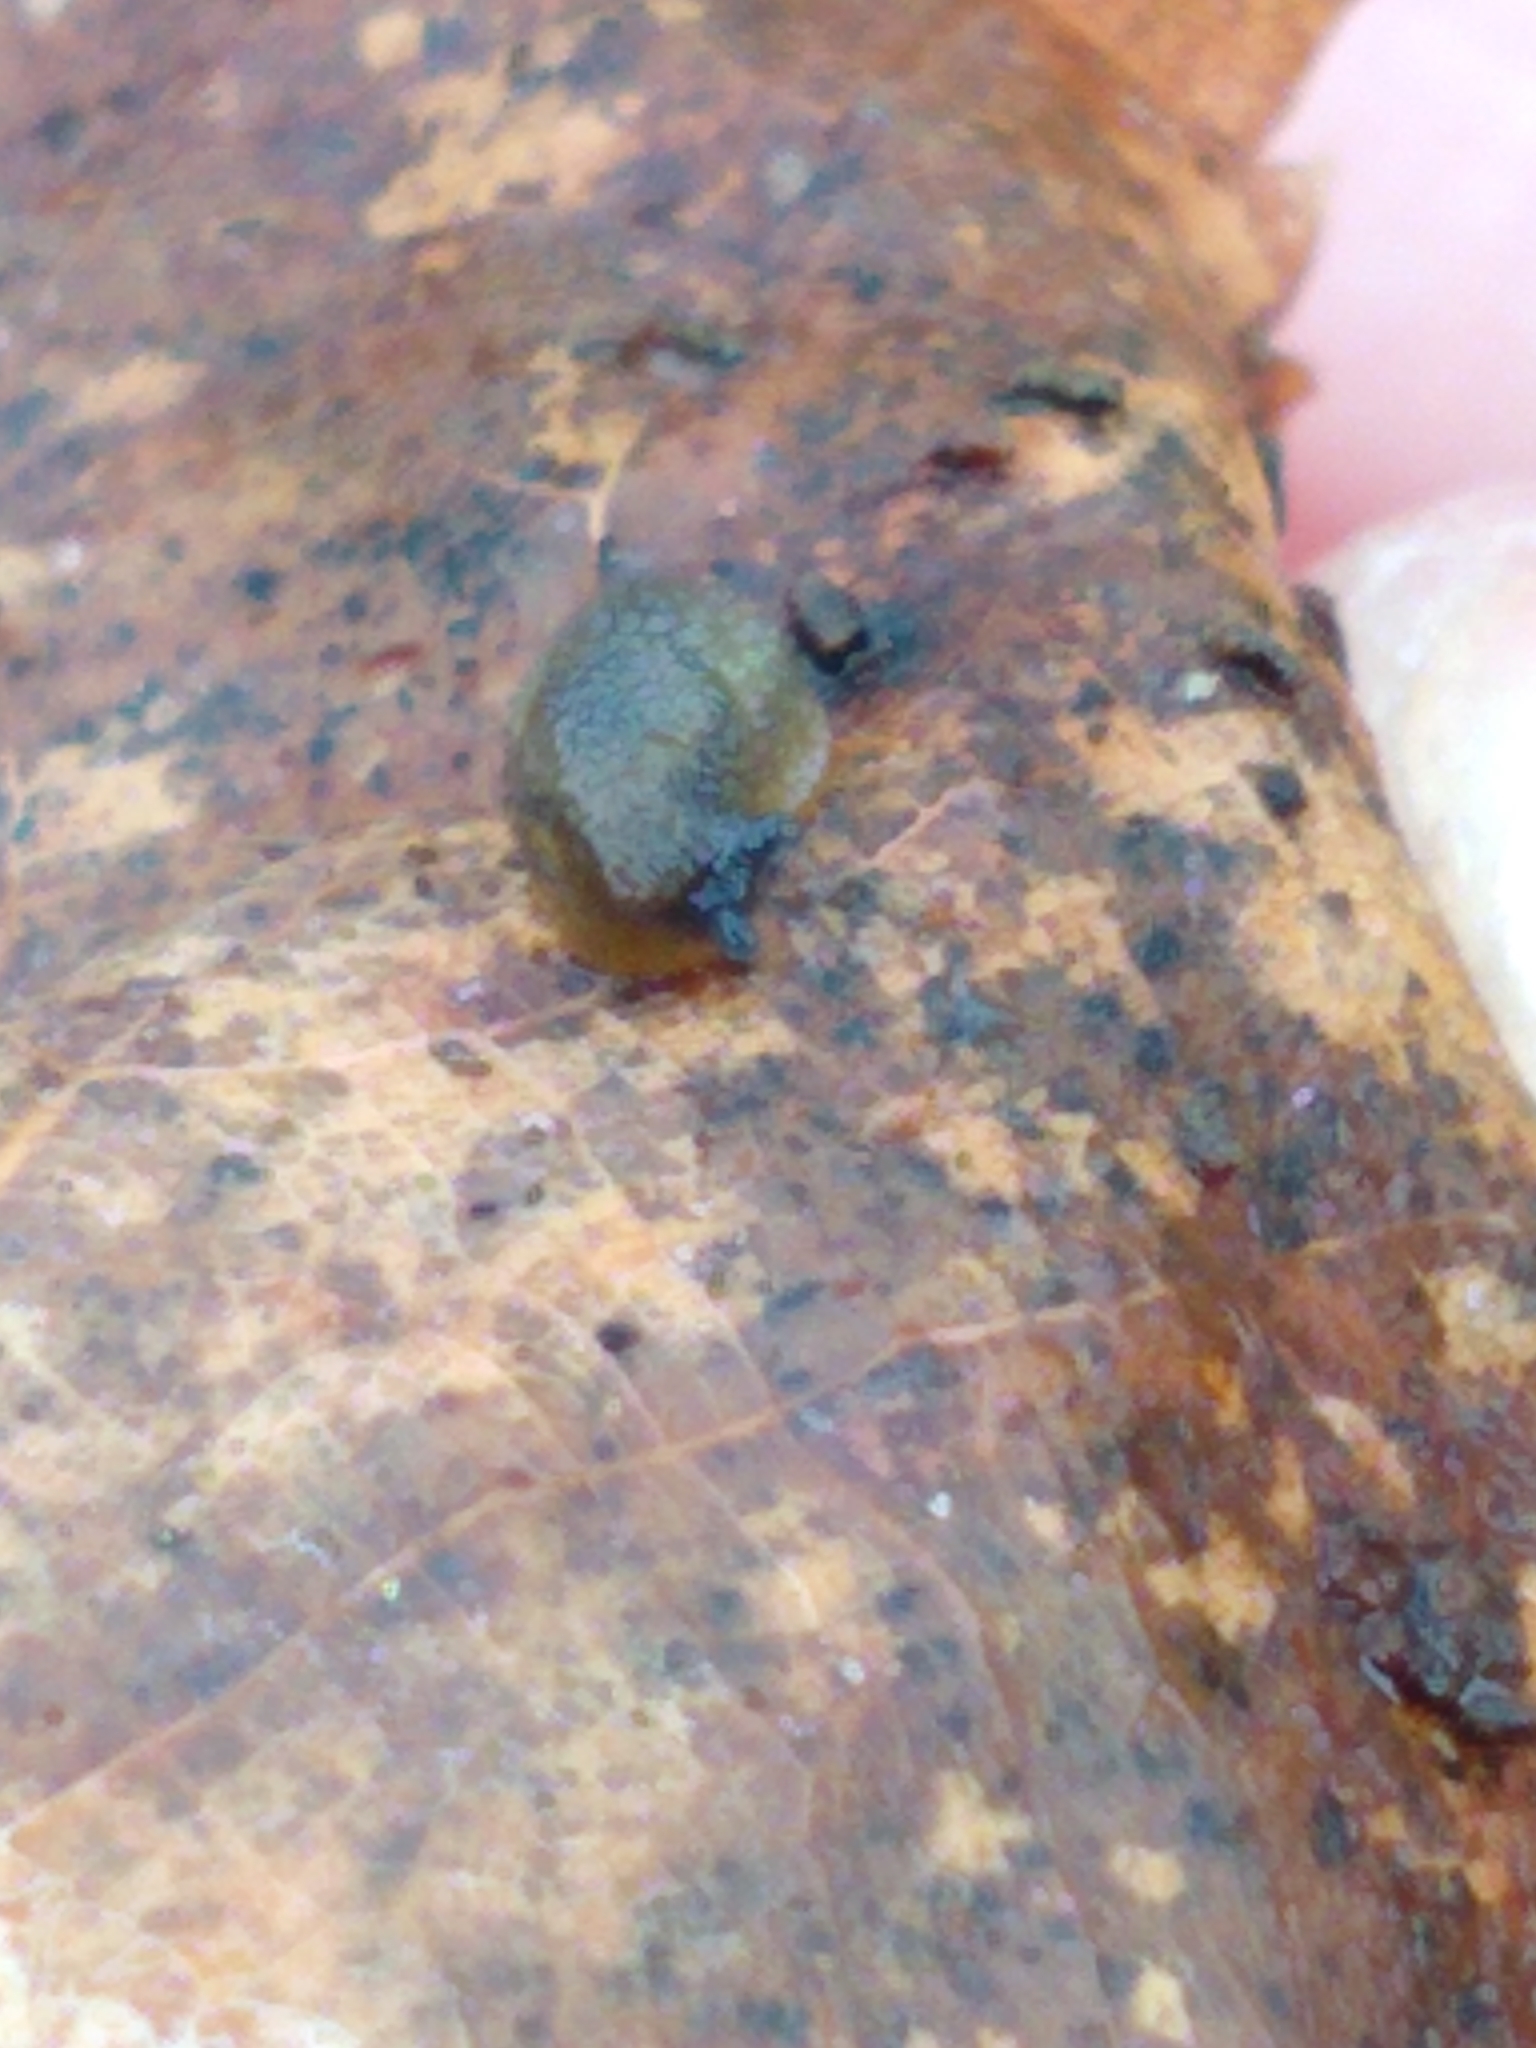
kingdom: Animalia
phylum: Mollusca
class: Gastropoda
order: Stylommatophora
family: Arionidae
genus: Arion
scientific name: Arion intermedius
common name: Hedgehog slug
